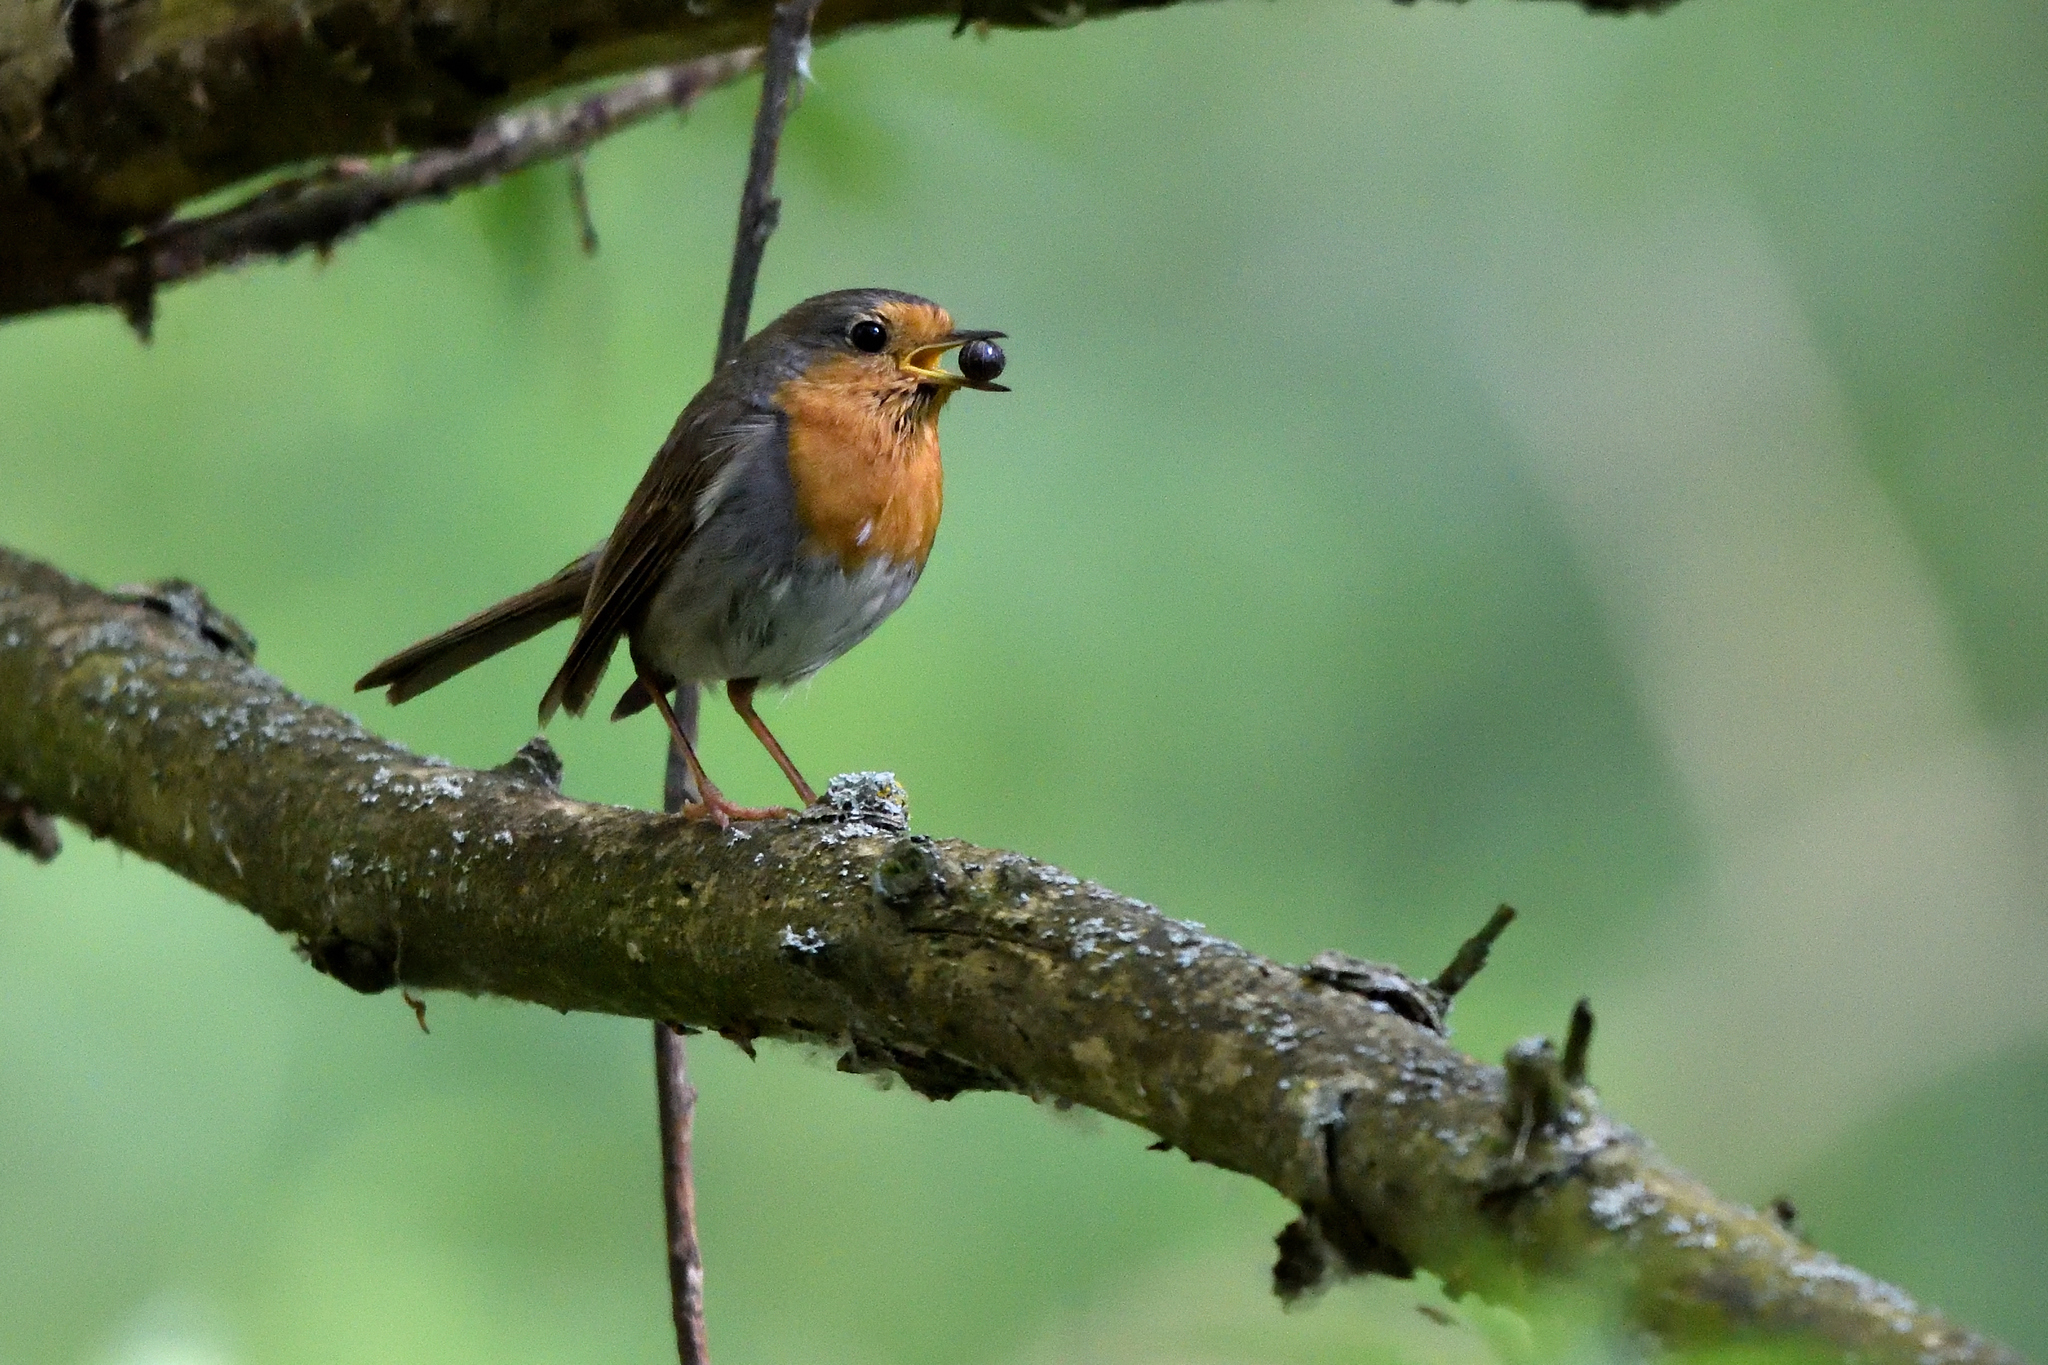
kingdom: Animalia
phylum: Chordata
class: Aves
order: Passeriformes
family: Muscicapidae
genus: Erithacus
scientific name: Erithacus rubecula
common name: European robin
